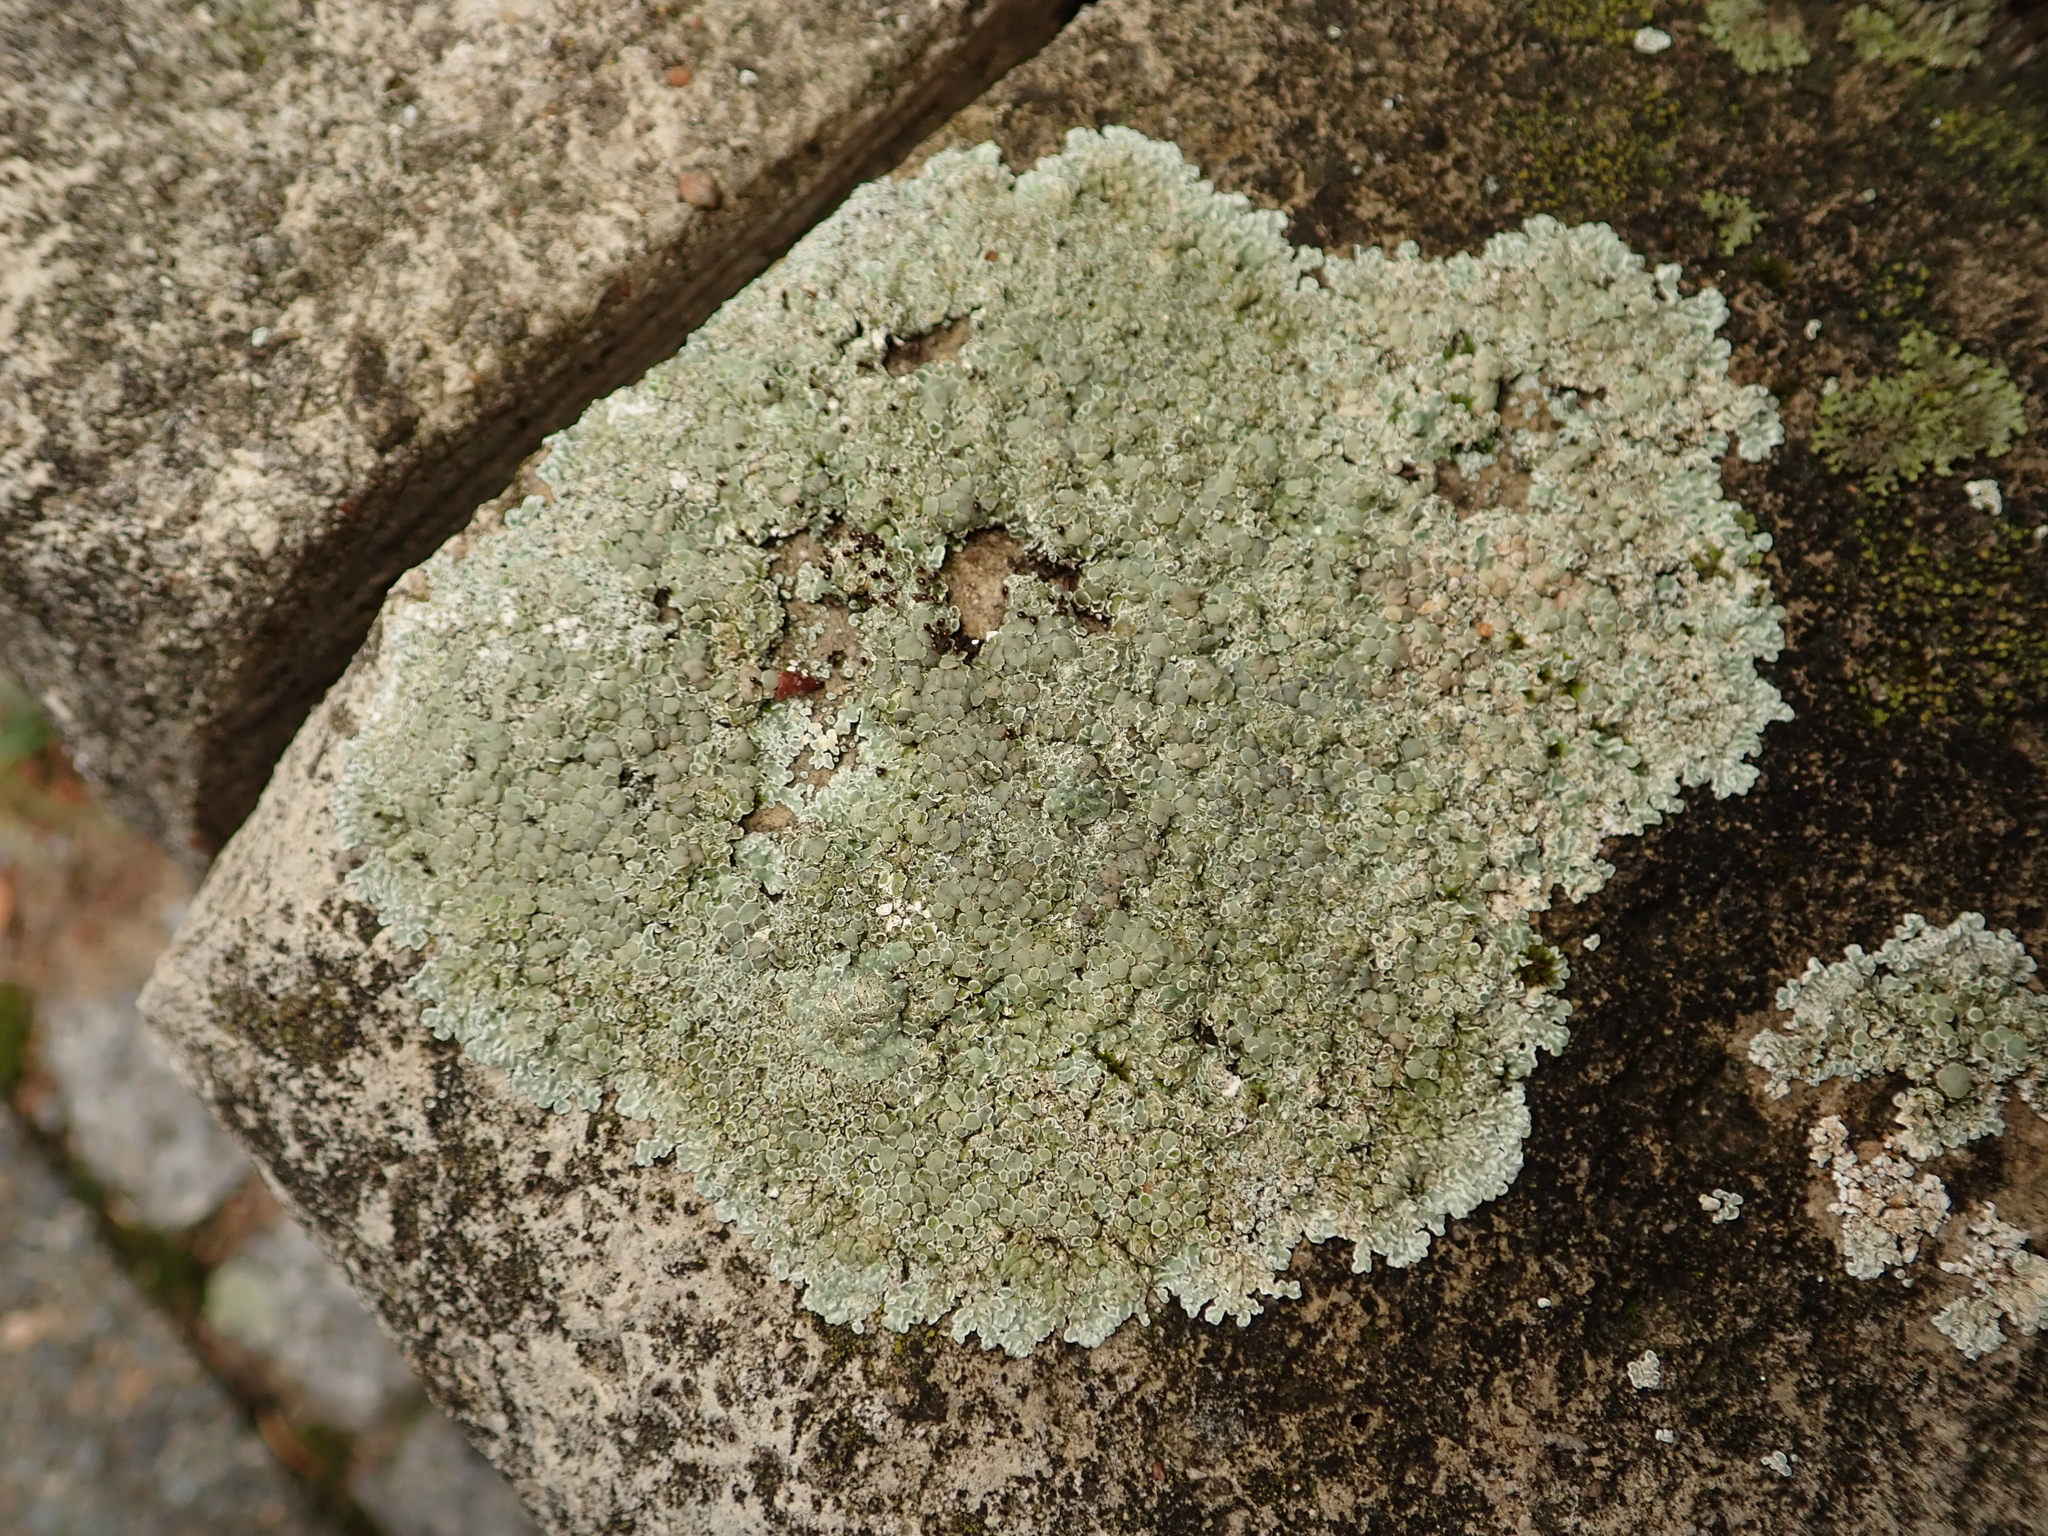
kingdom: Fungi
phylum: Ascomycota
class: Lecanoromycetes
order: Lecanorales
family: Lecanoraceae
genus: Protoparmeliopsis
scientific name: Protoparmeliopsis muralis
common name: Stonewall rim lichen
